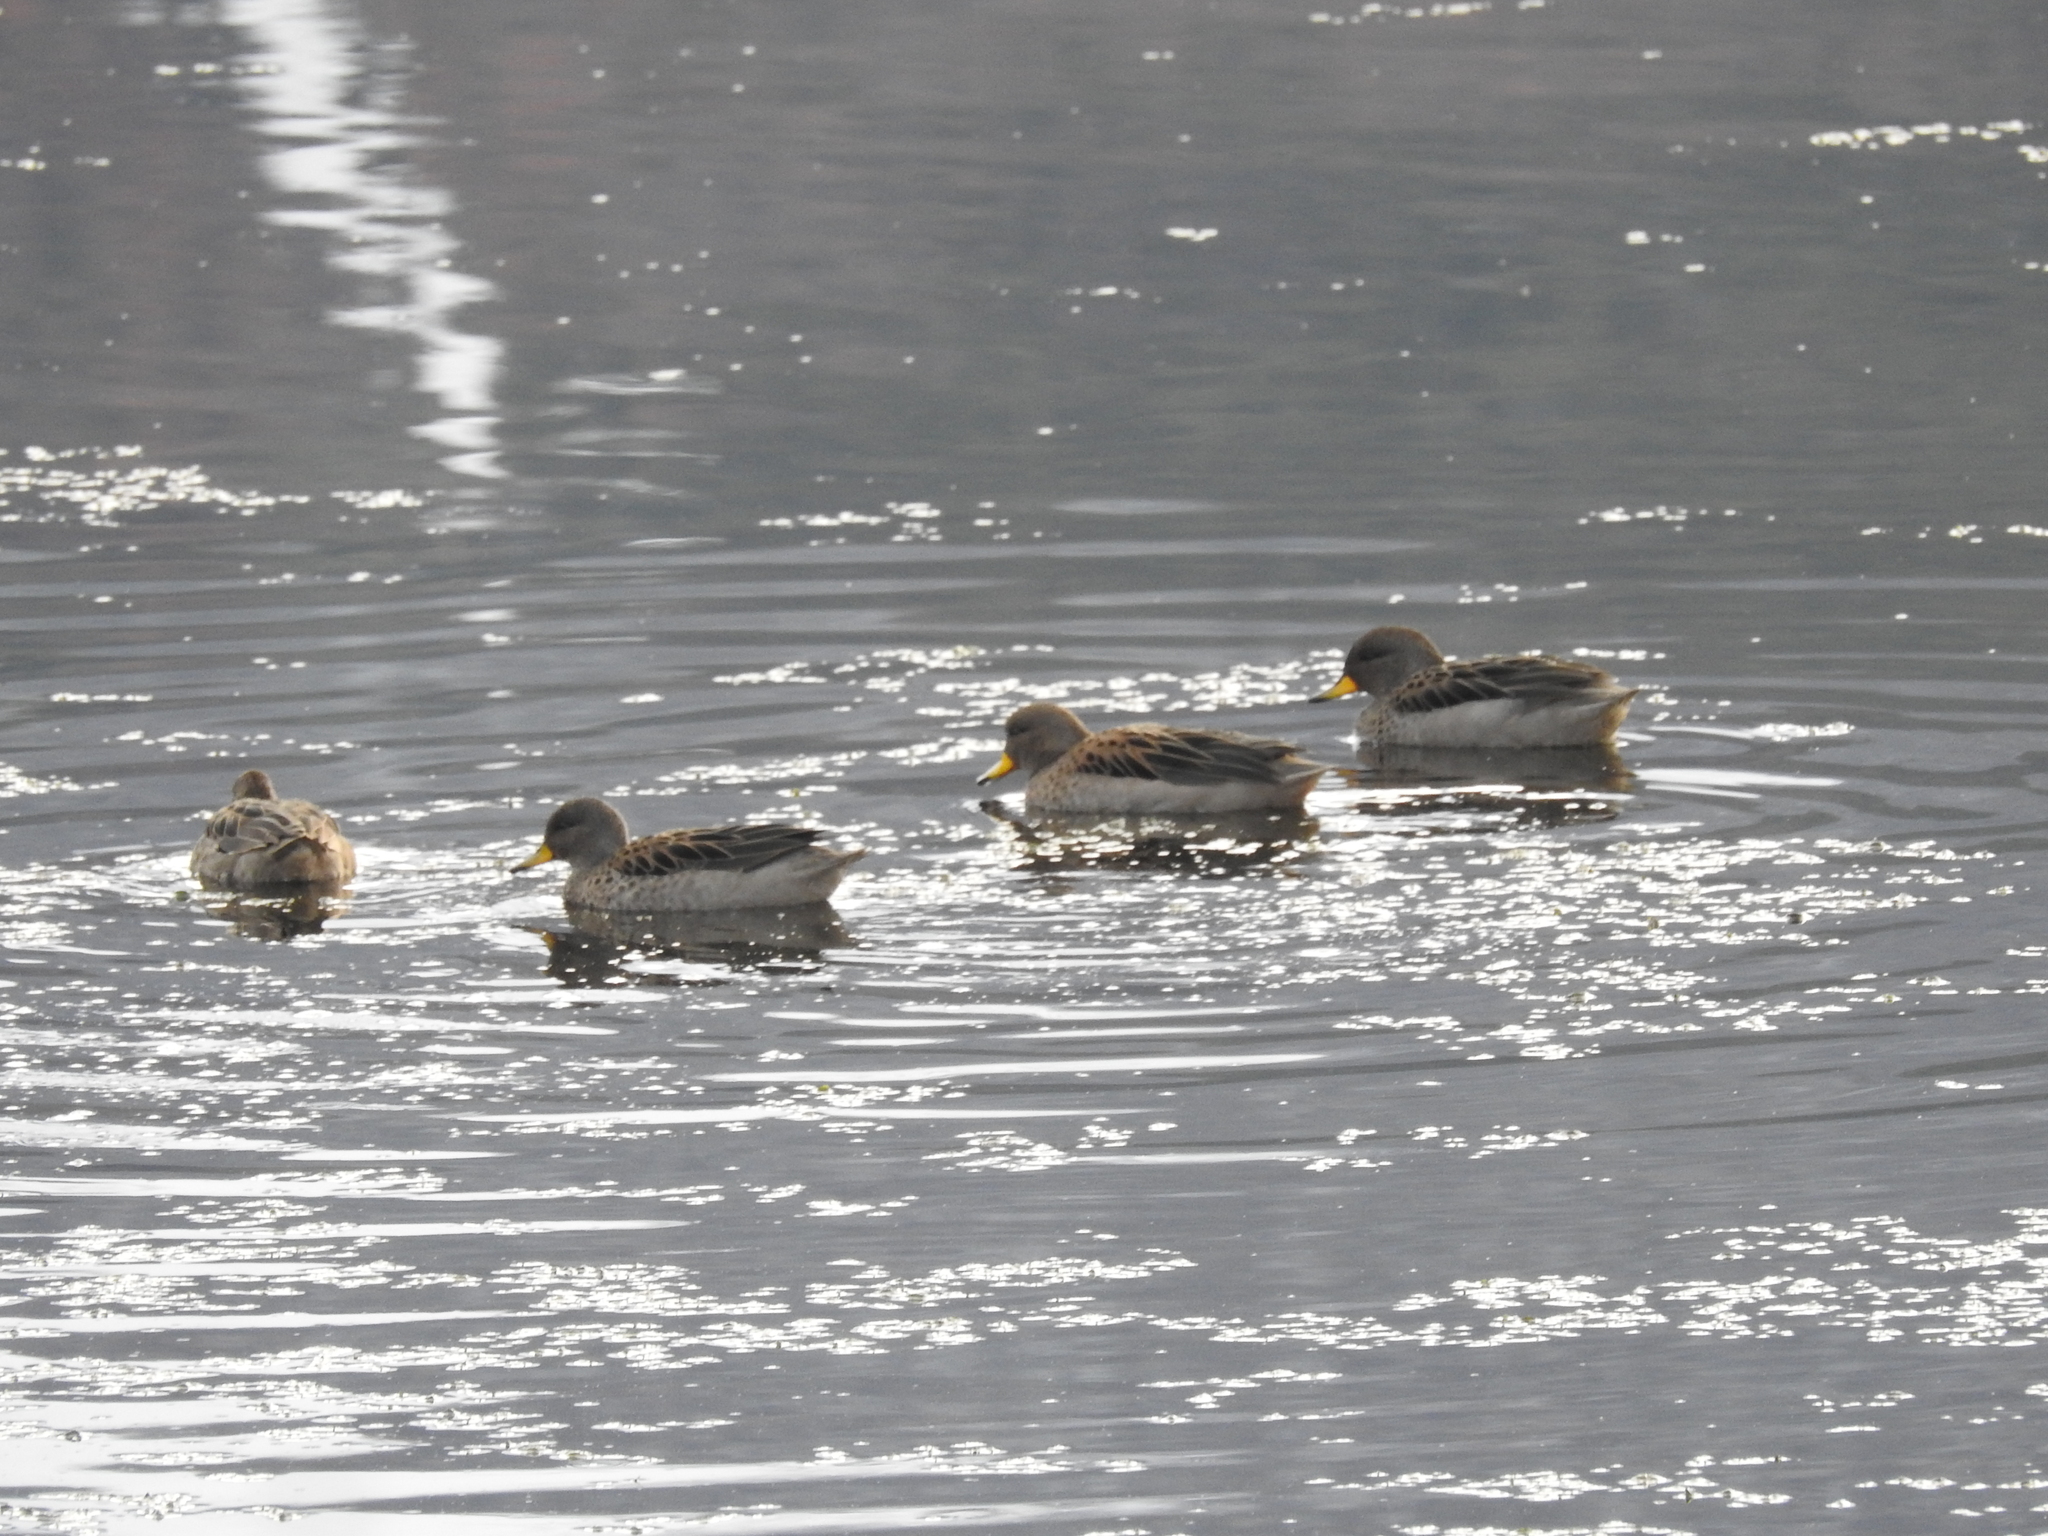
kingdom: Animalia
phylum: Chordata
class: Aves
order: Anseriformes
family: Anatidae
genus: Anas
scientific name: Anas flavirostris
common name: Yellow-billed teal
